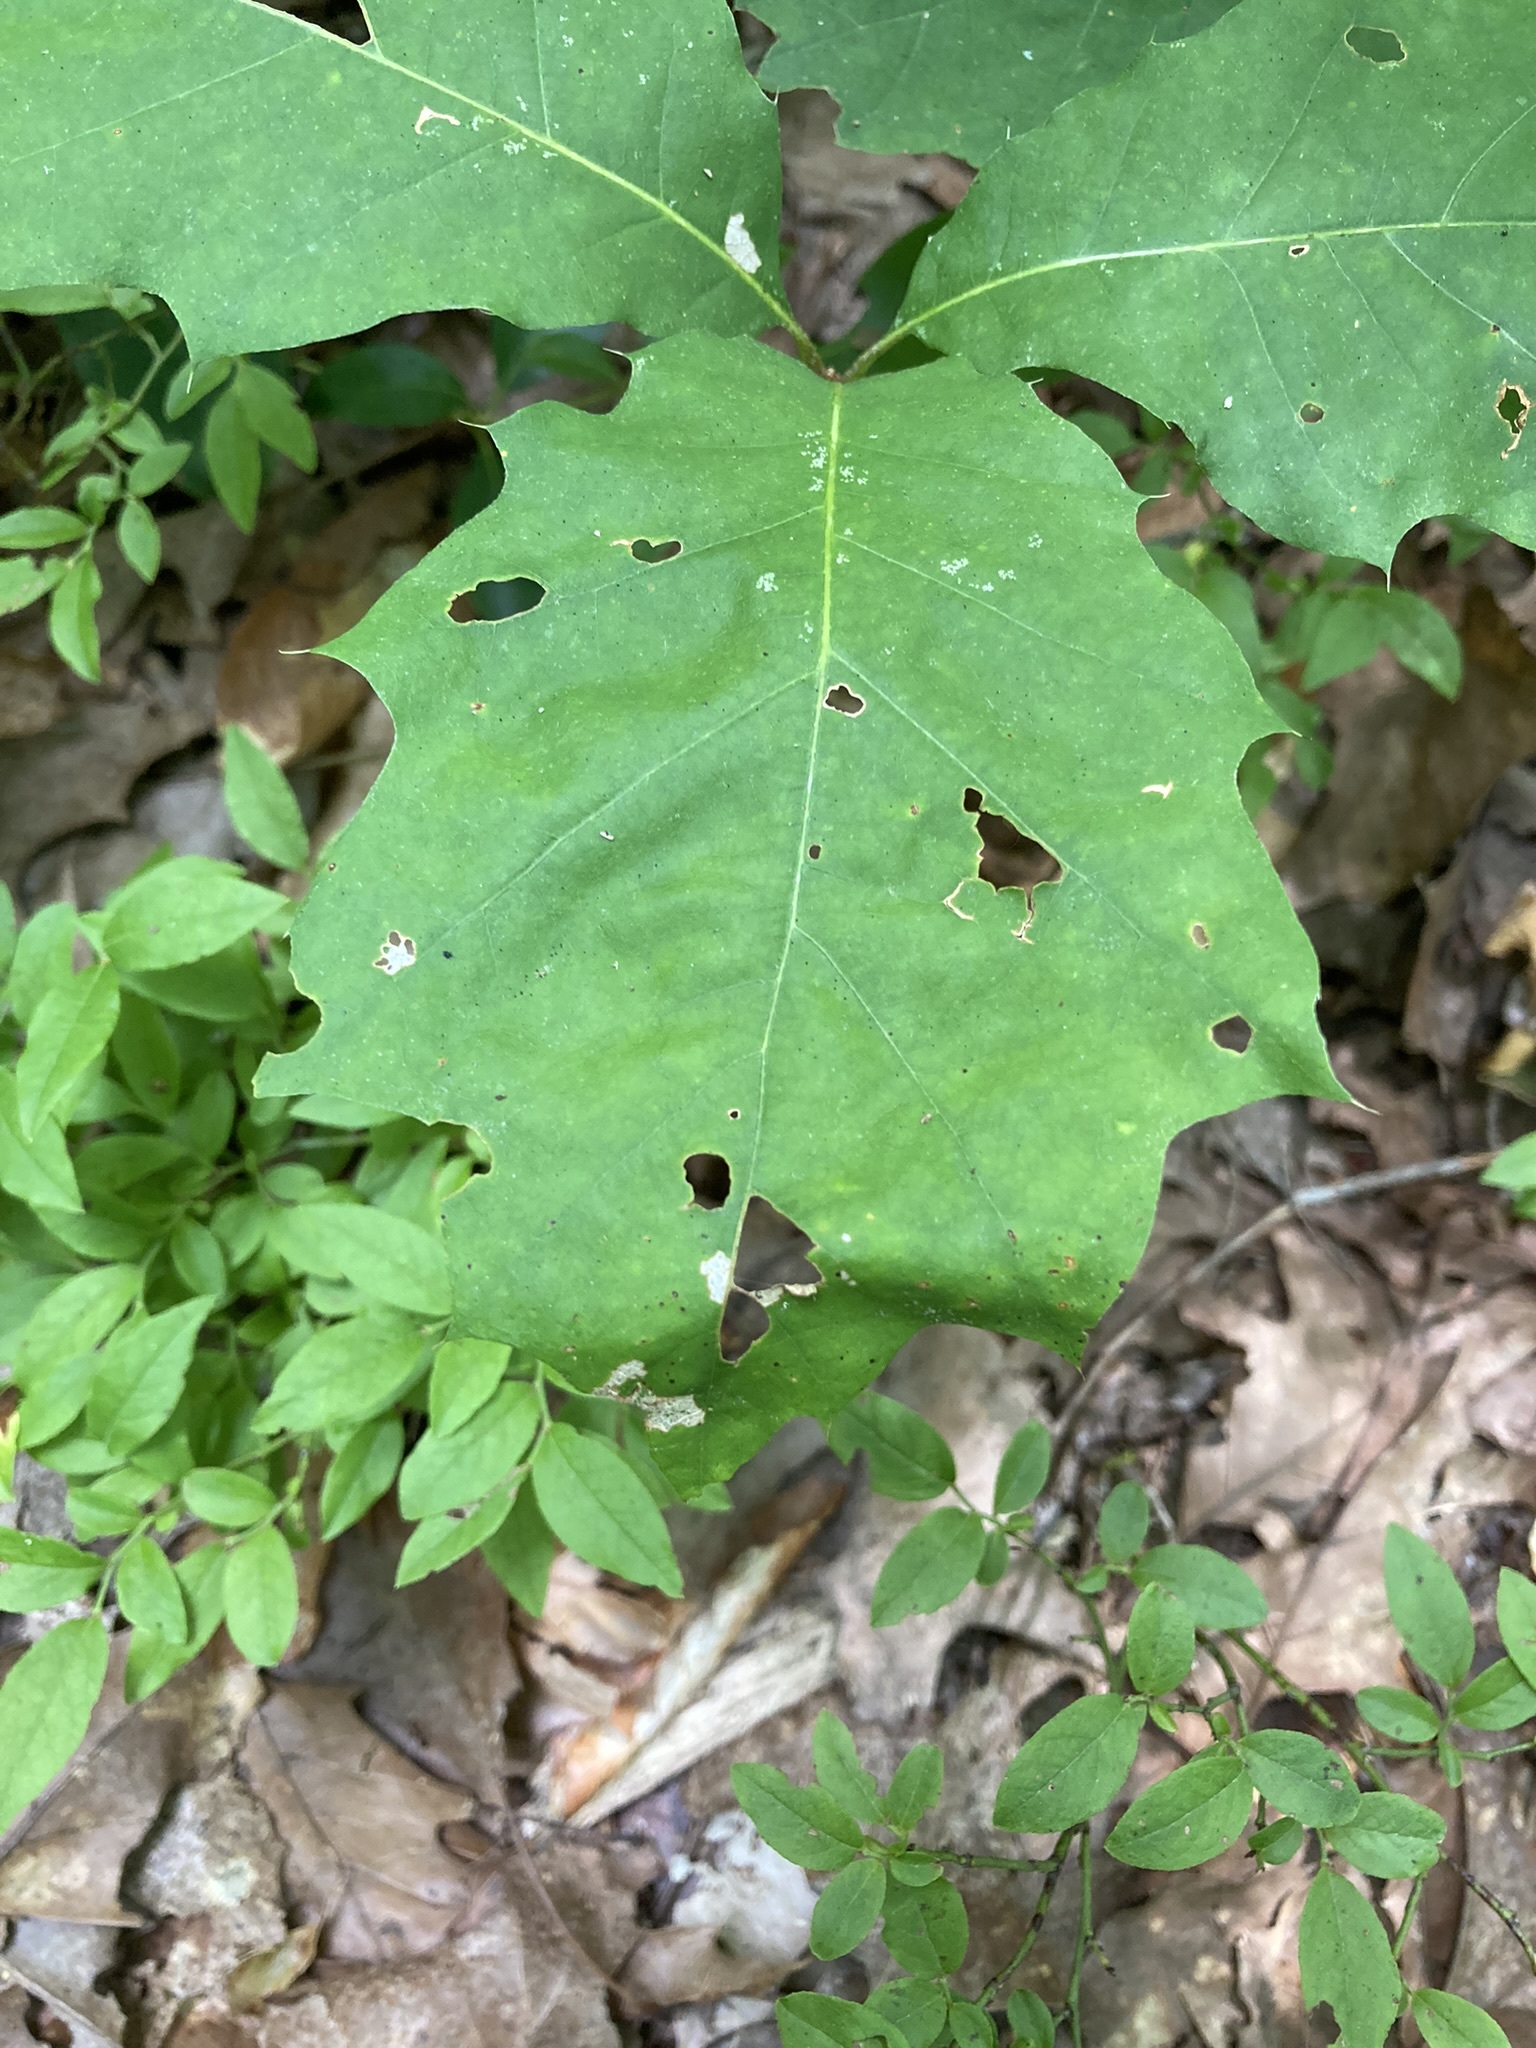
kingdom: Plantae
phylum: Tracheophyta
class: Magnoliopsida
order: Fagales
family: Fagaceae
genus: Quercus
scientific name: Quercus rubra
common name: Red oak
